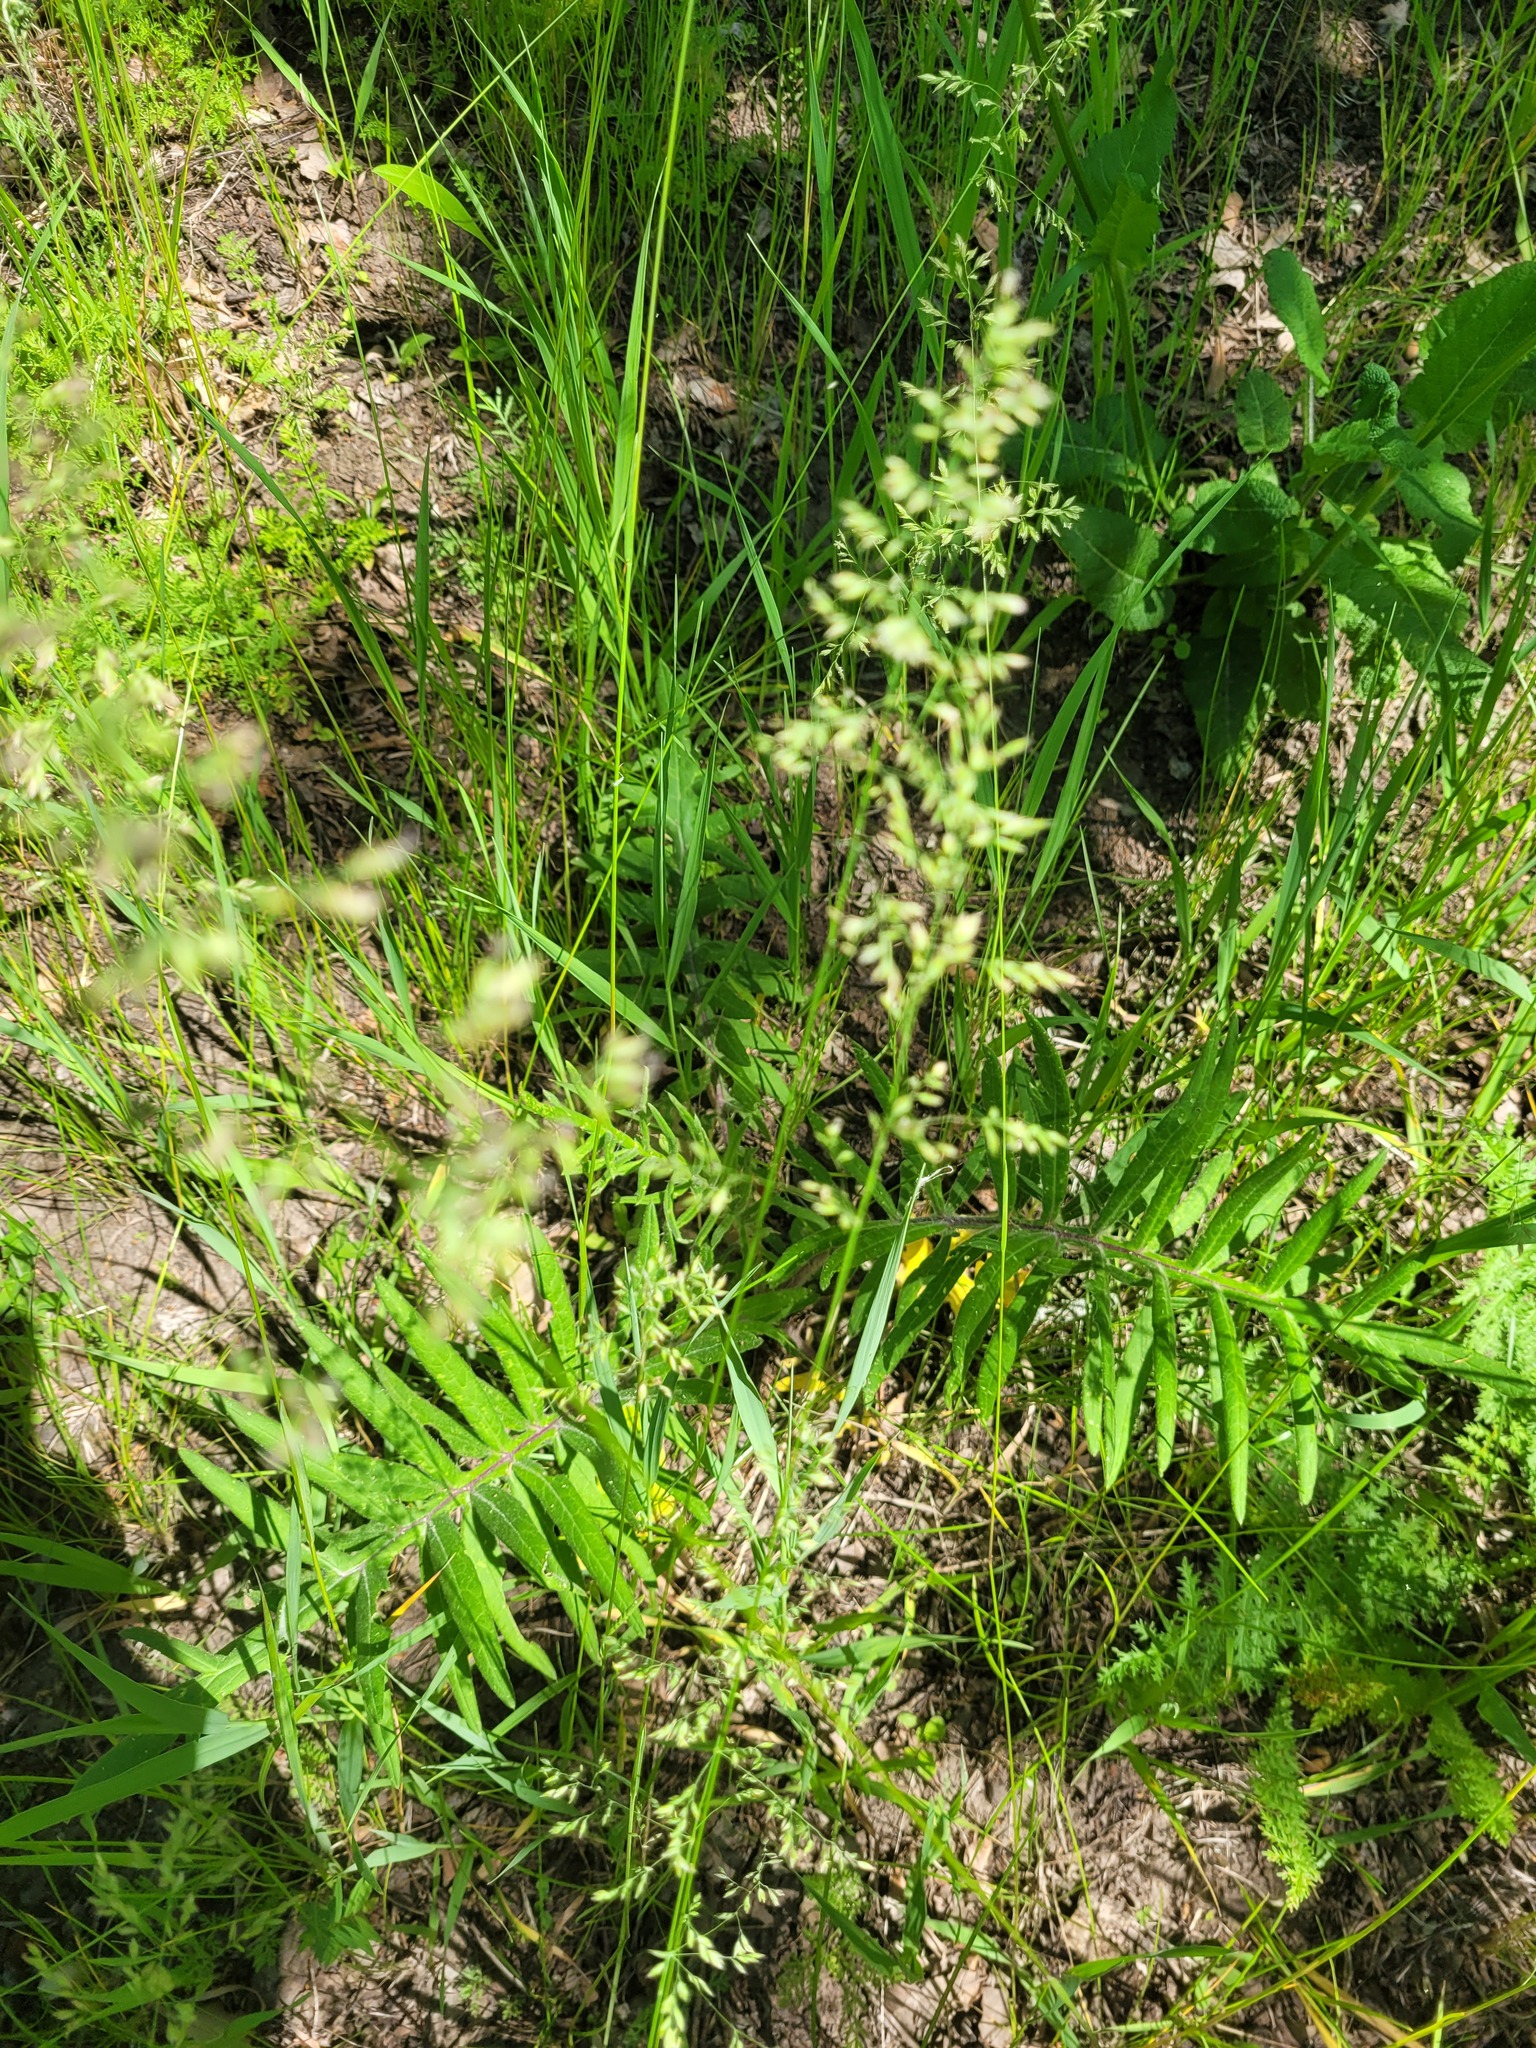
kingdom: Plantae
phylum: Tracheophyta
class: Magnoliopsida
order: Asterales
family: Asteraceae
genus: Lophiolepis
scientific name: Lophiolepis decussata
